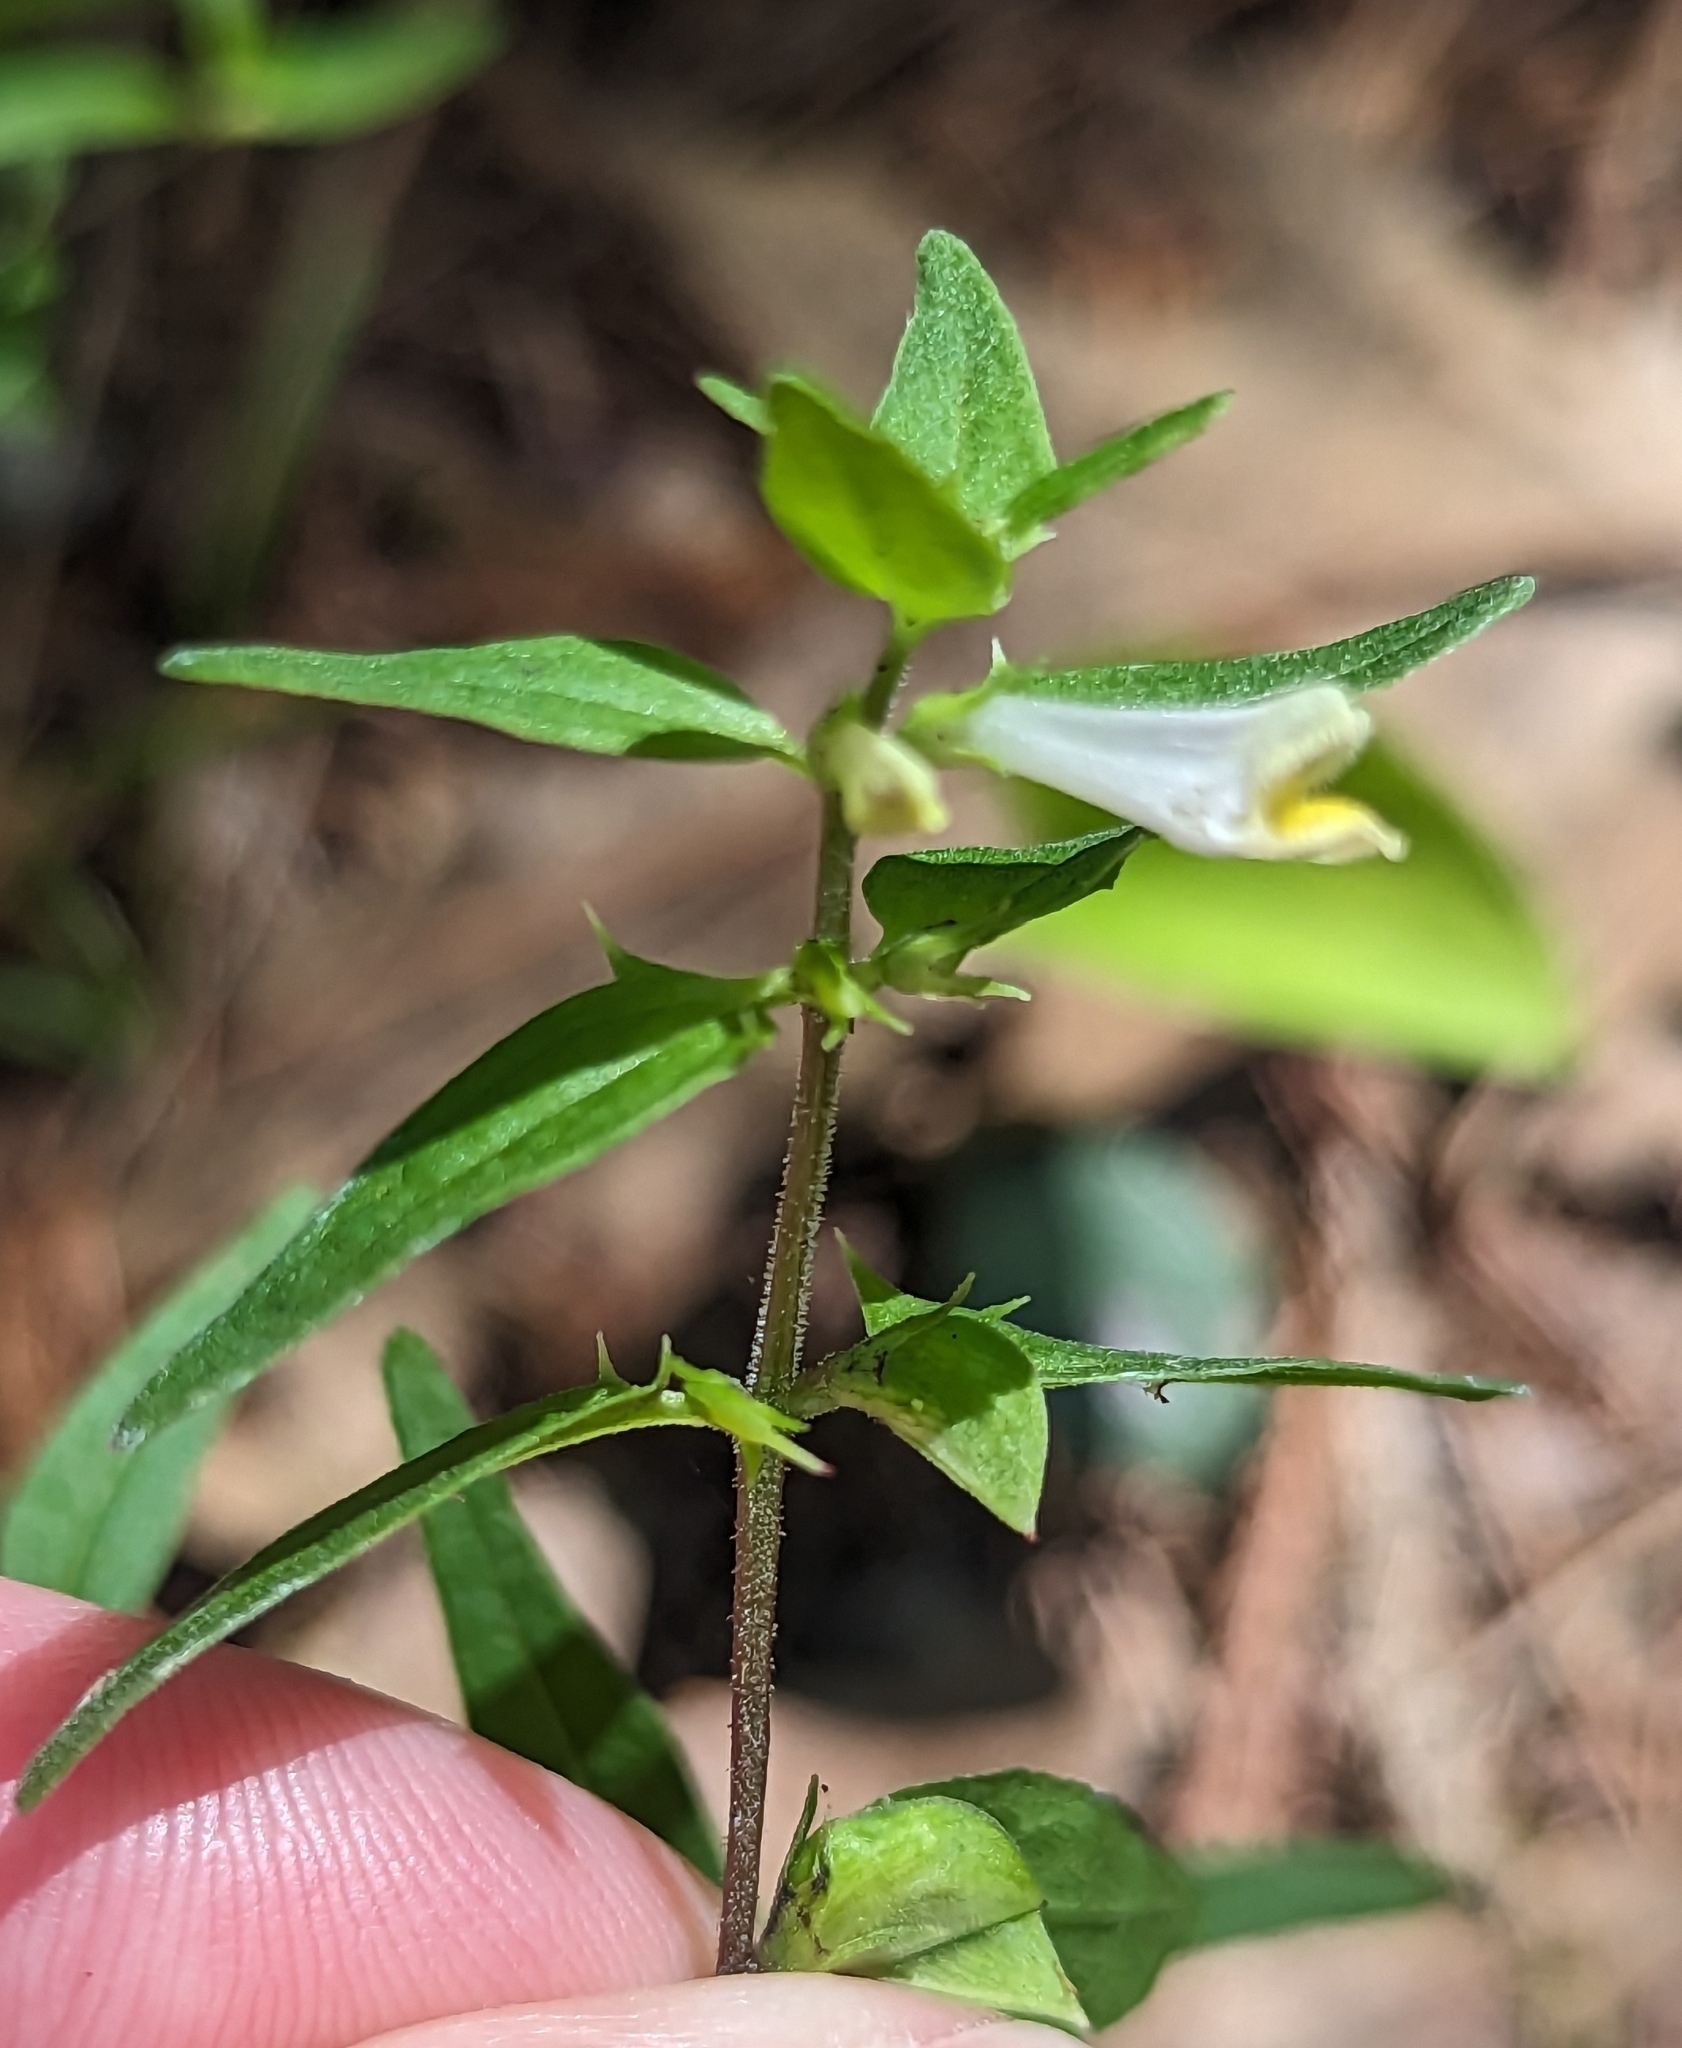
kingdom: Plantae
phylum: Tracheophyta
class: Magnoliopsida
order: Lamiales
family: Orobanchaceae
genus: Melampyrum
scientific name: Melampyrum lineare
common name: American cow-wheat
